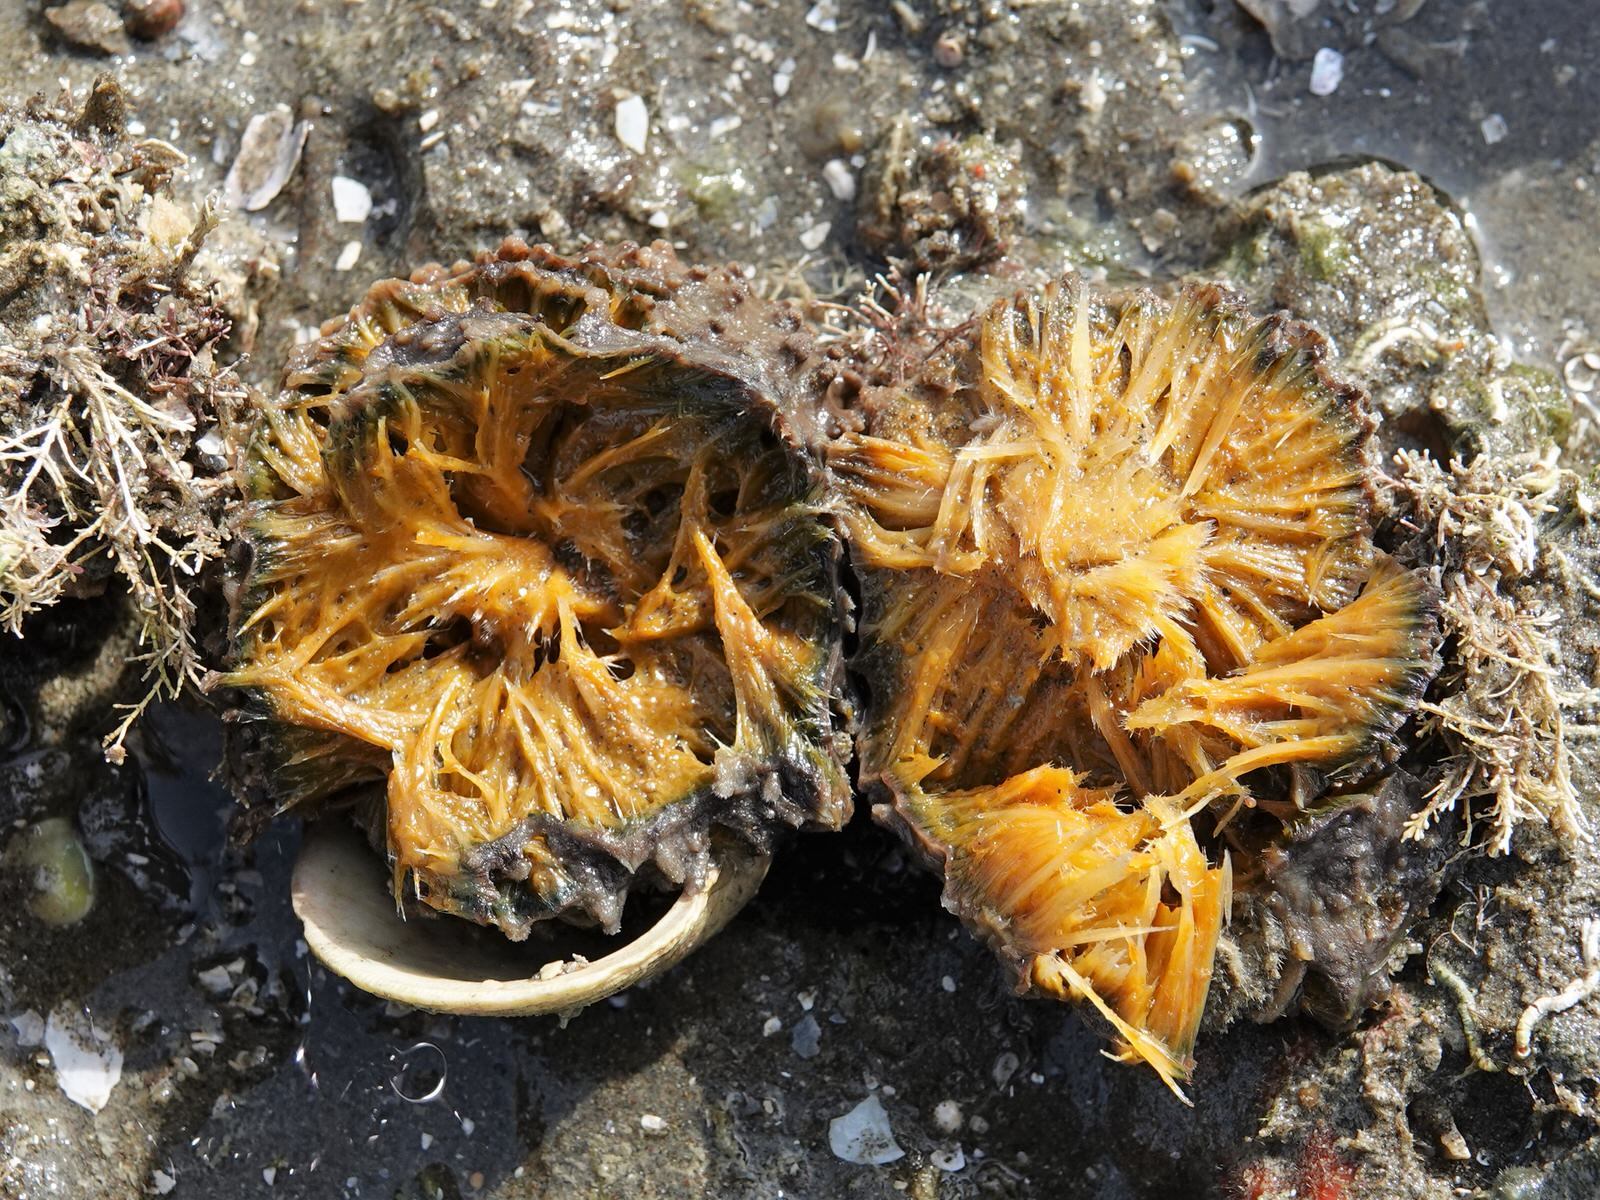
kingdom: Animalia
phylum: Porifera
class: Demospongiae
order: Suberitida
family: Suberitidae
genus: Aaptos
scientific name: Aaptos tenta
